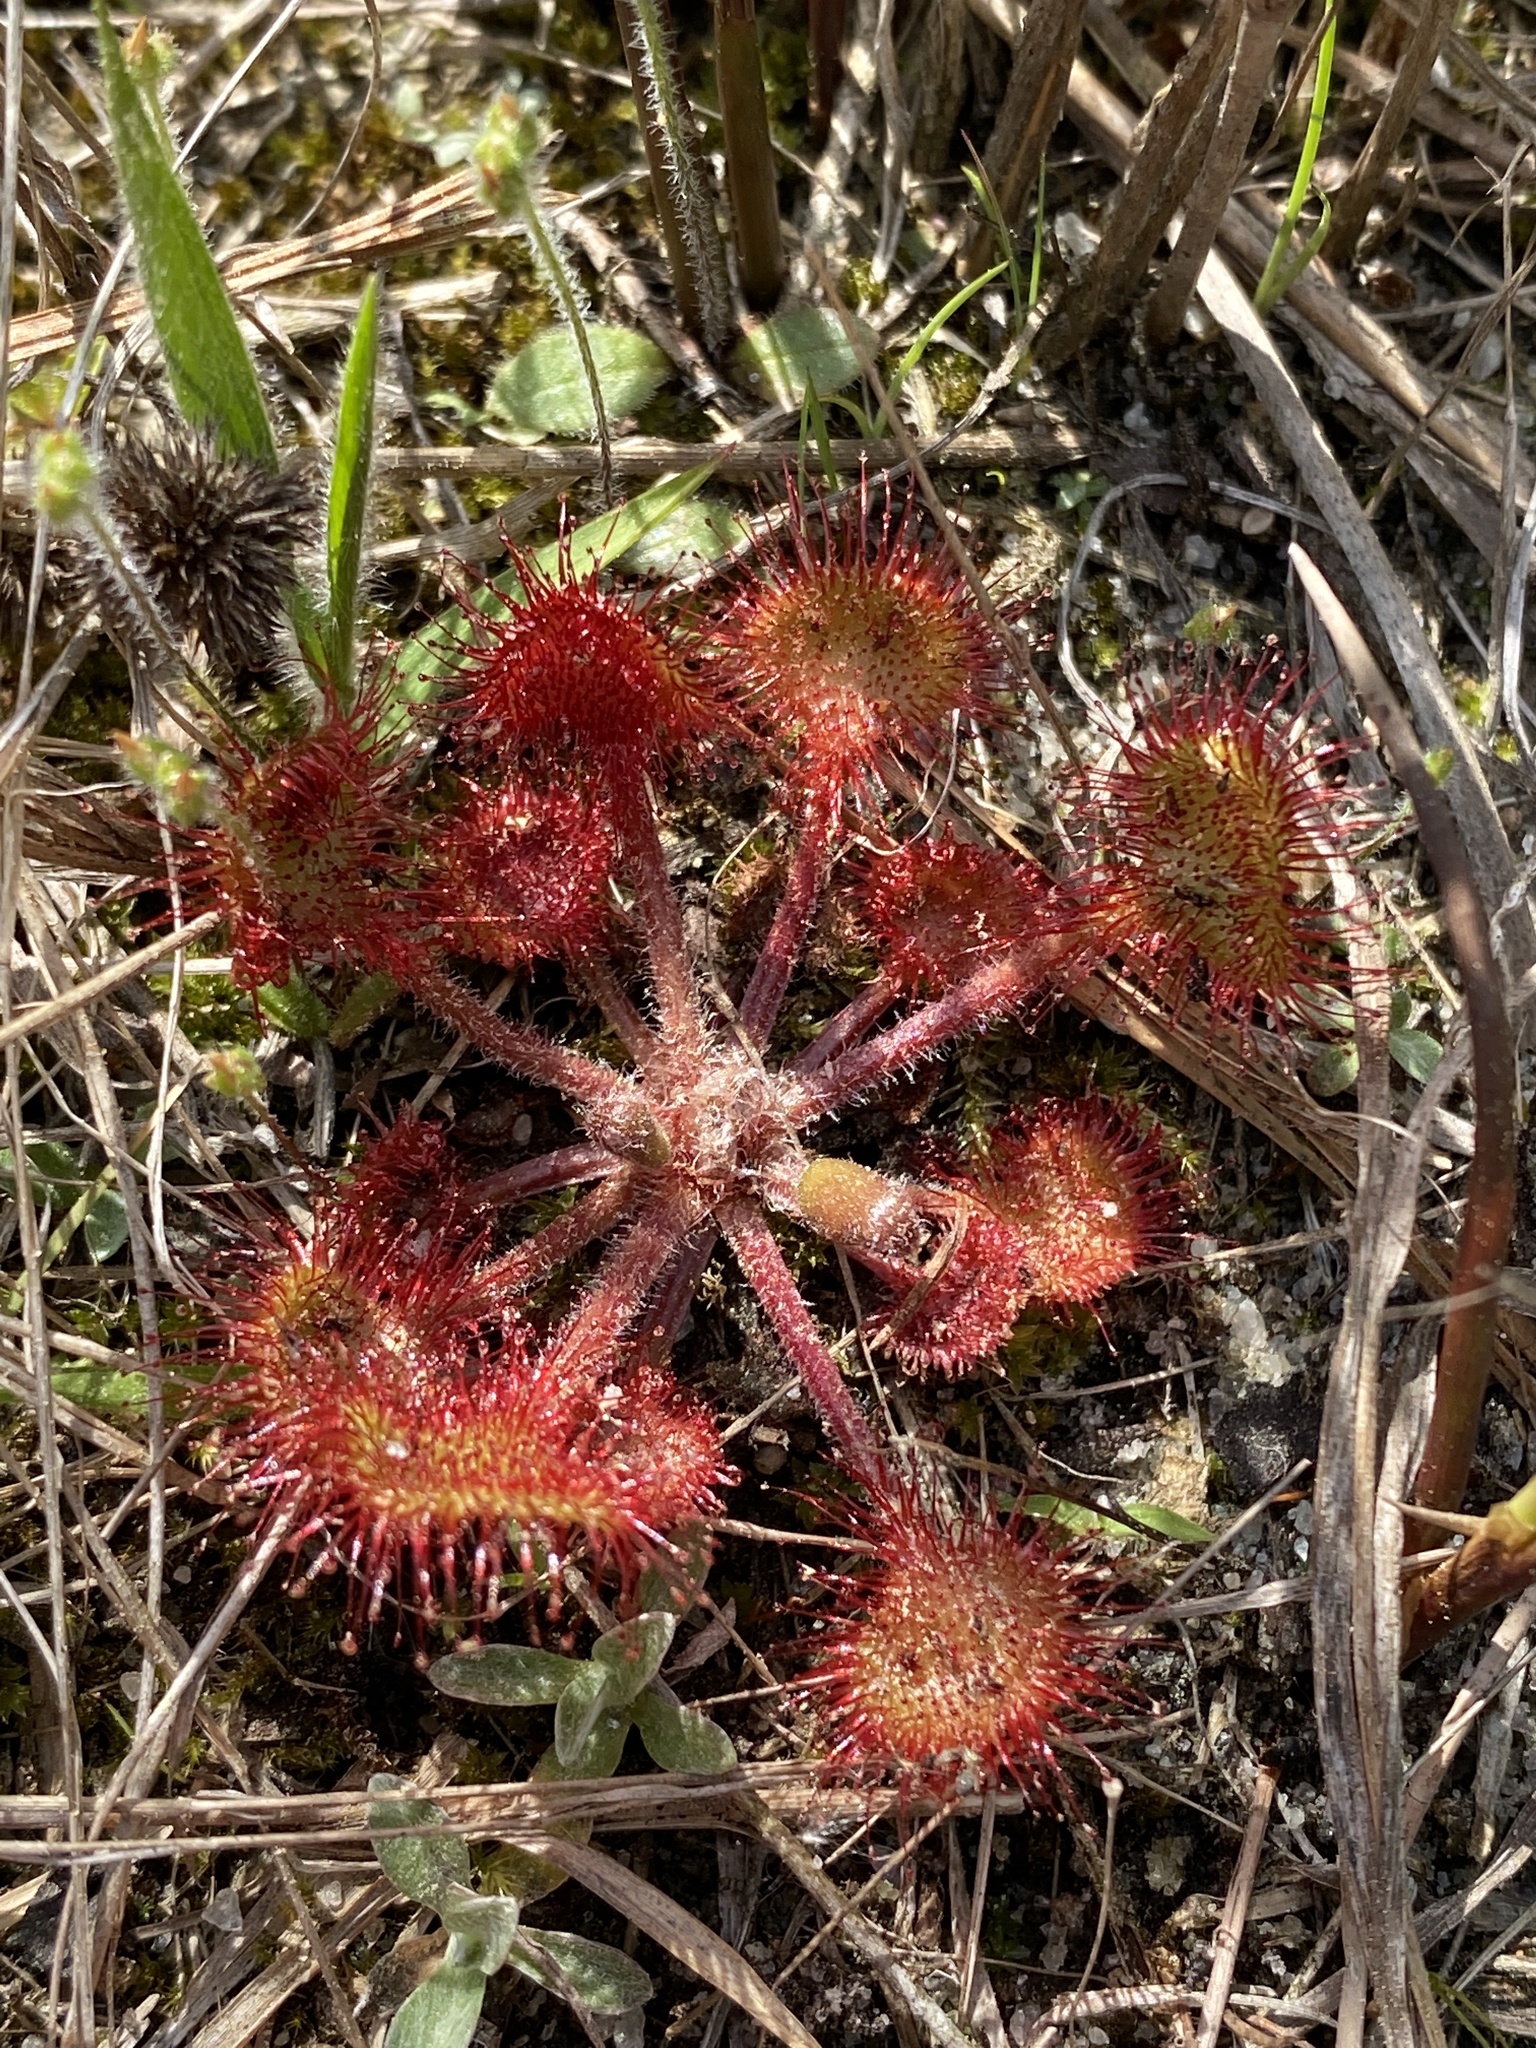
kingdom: Plantae
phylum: Tracheophyta
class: Magnoliopsida
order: Caryophyllales
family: Droseraceae
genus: Drosera
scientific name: Drosera rotundifolia
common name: Round-leaved sundew
